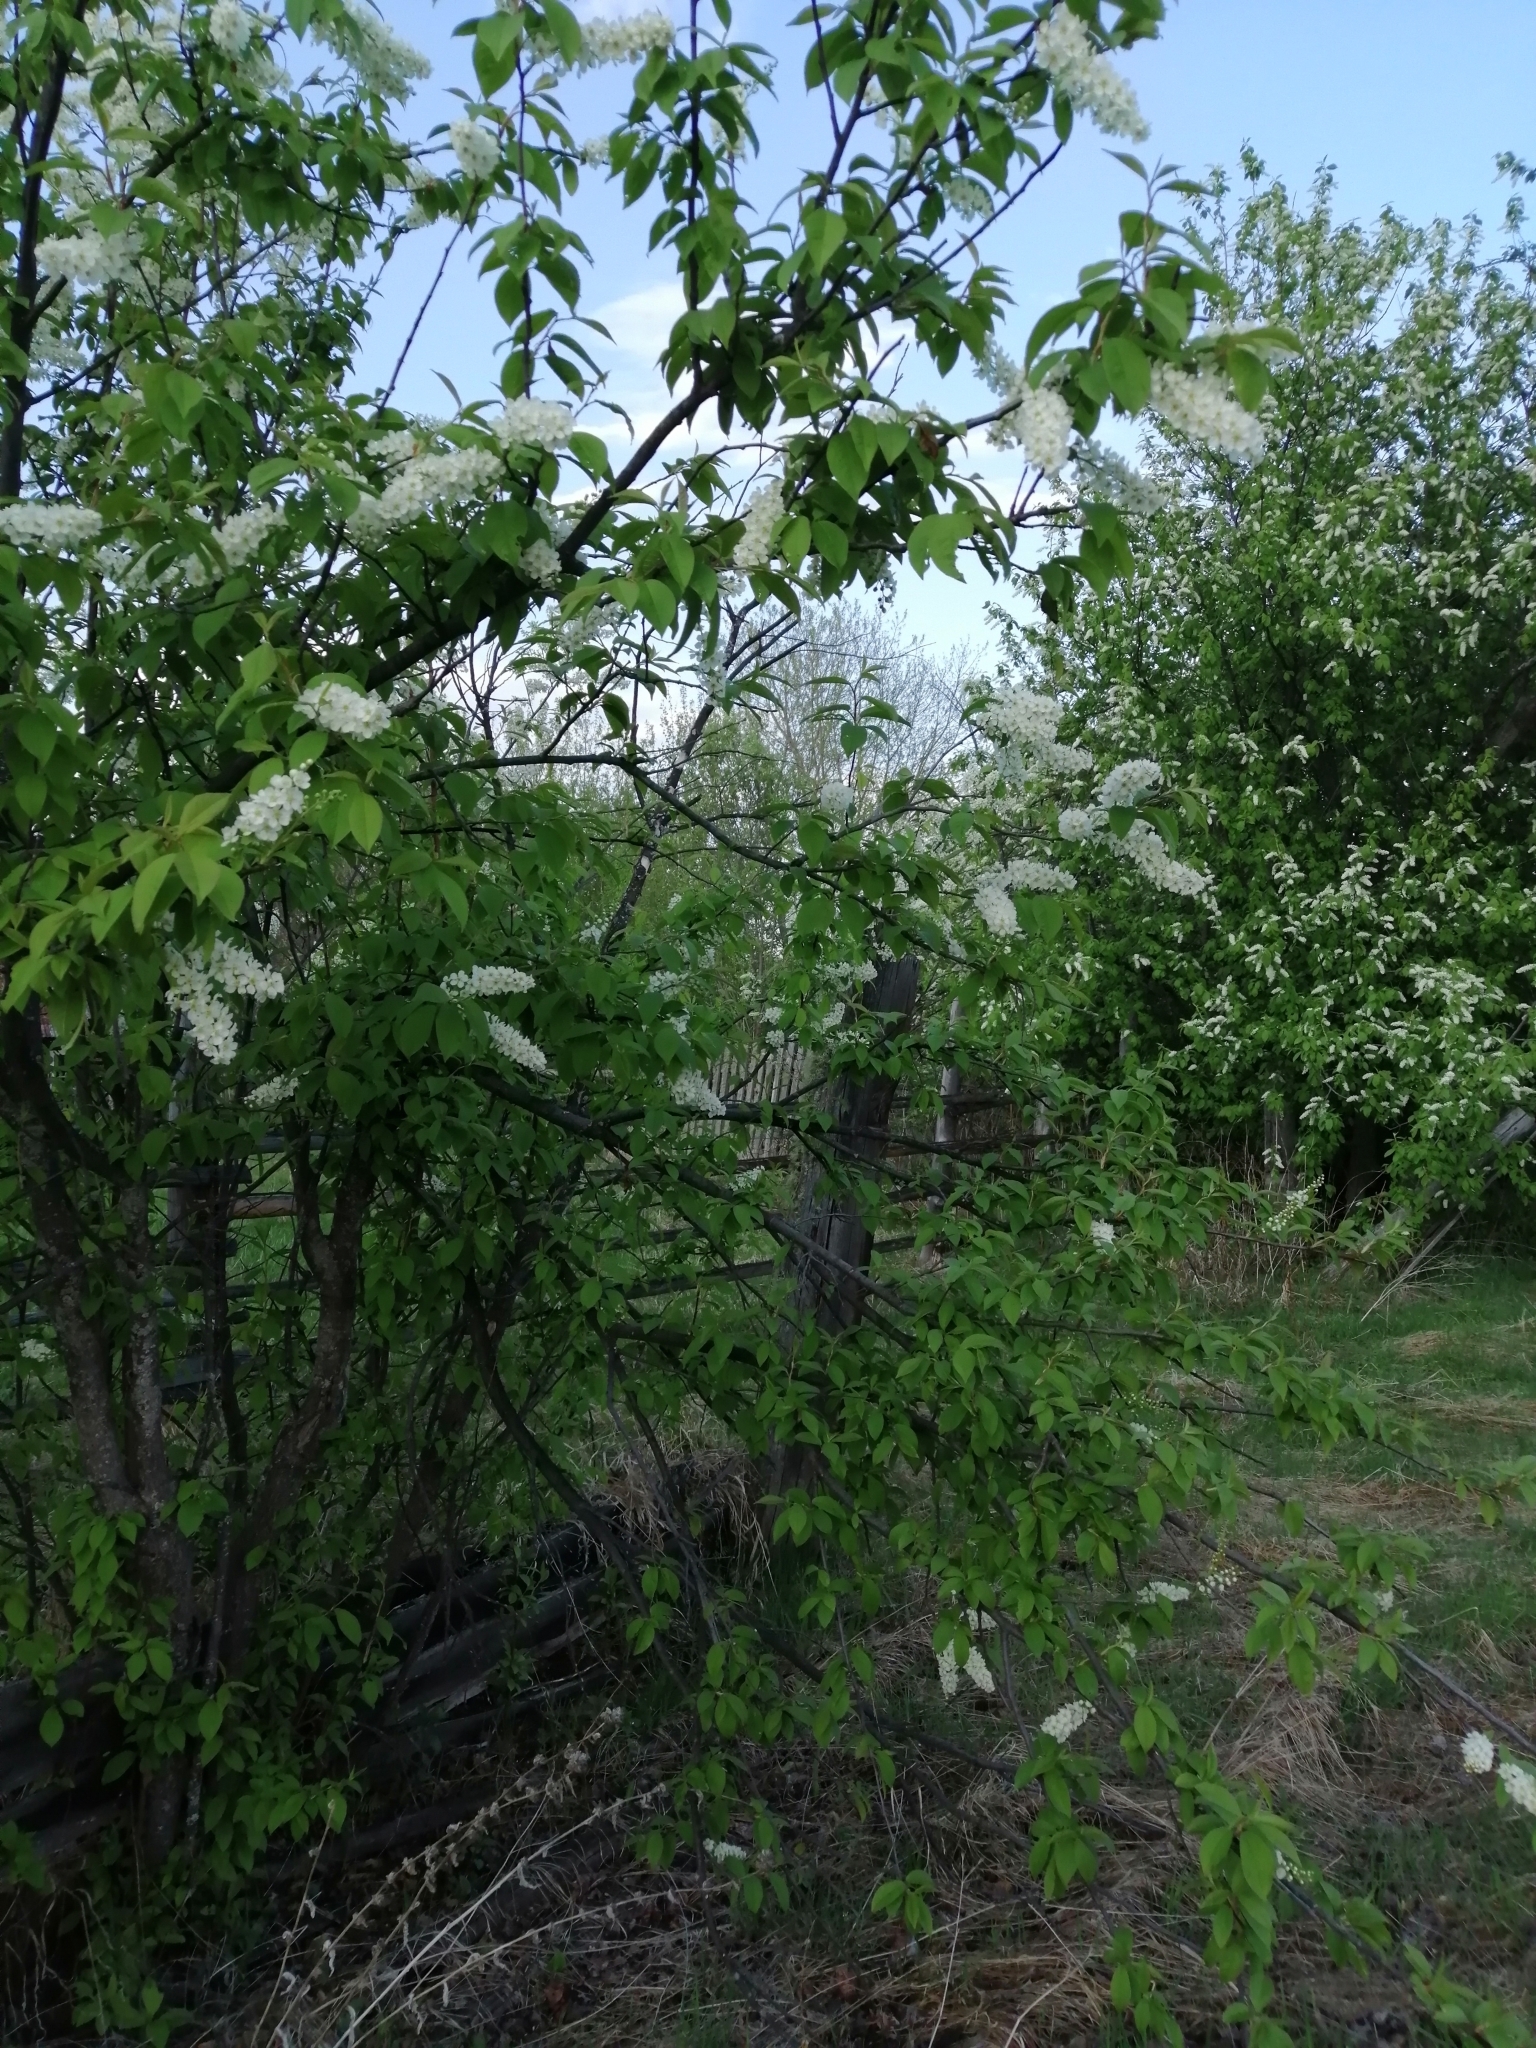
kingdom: Plantae
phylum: Tracheophyta
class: Magnoliopsida
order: Rosales
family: Rosaceae
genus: Prunus
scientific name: Prunus padus
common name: Bird cherry
